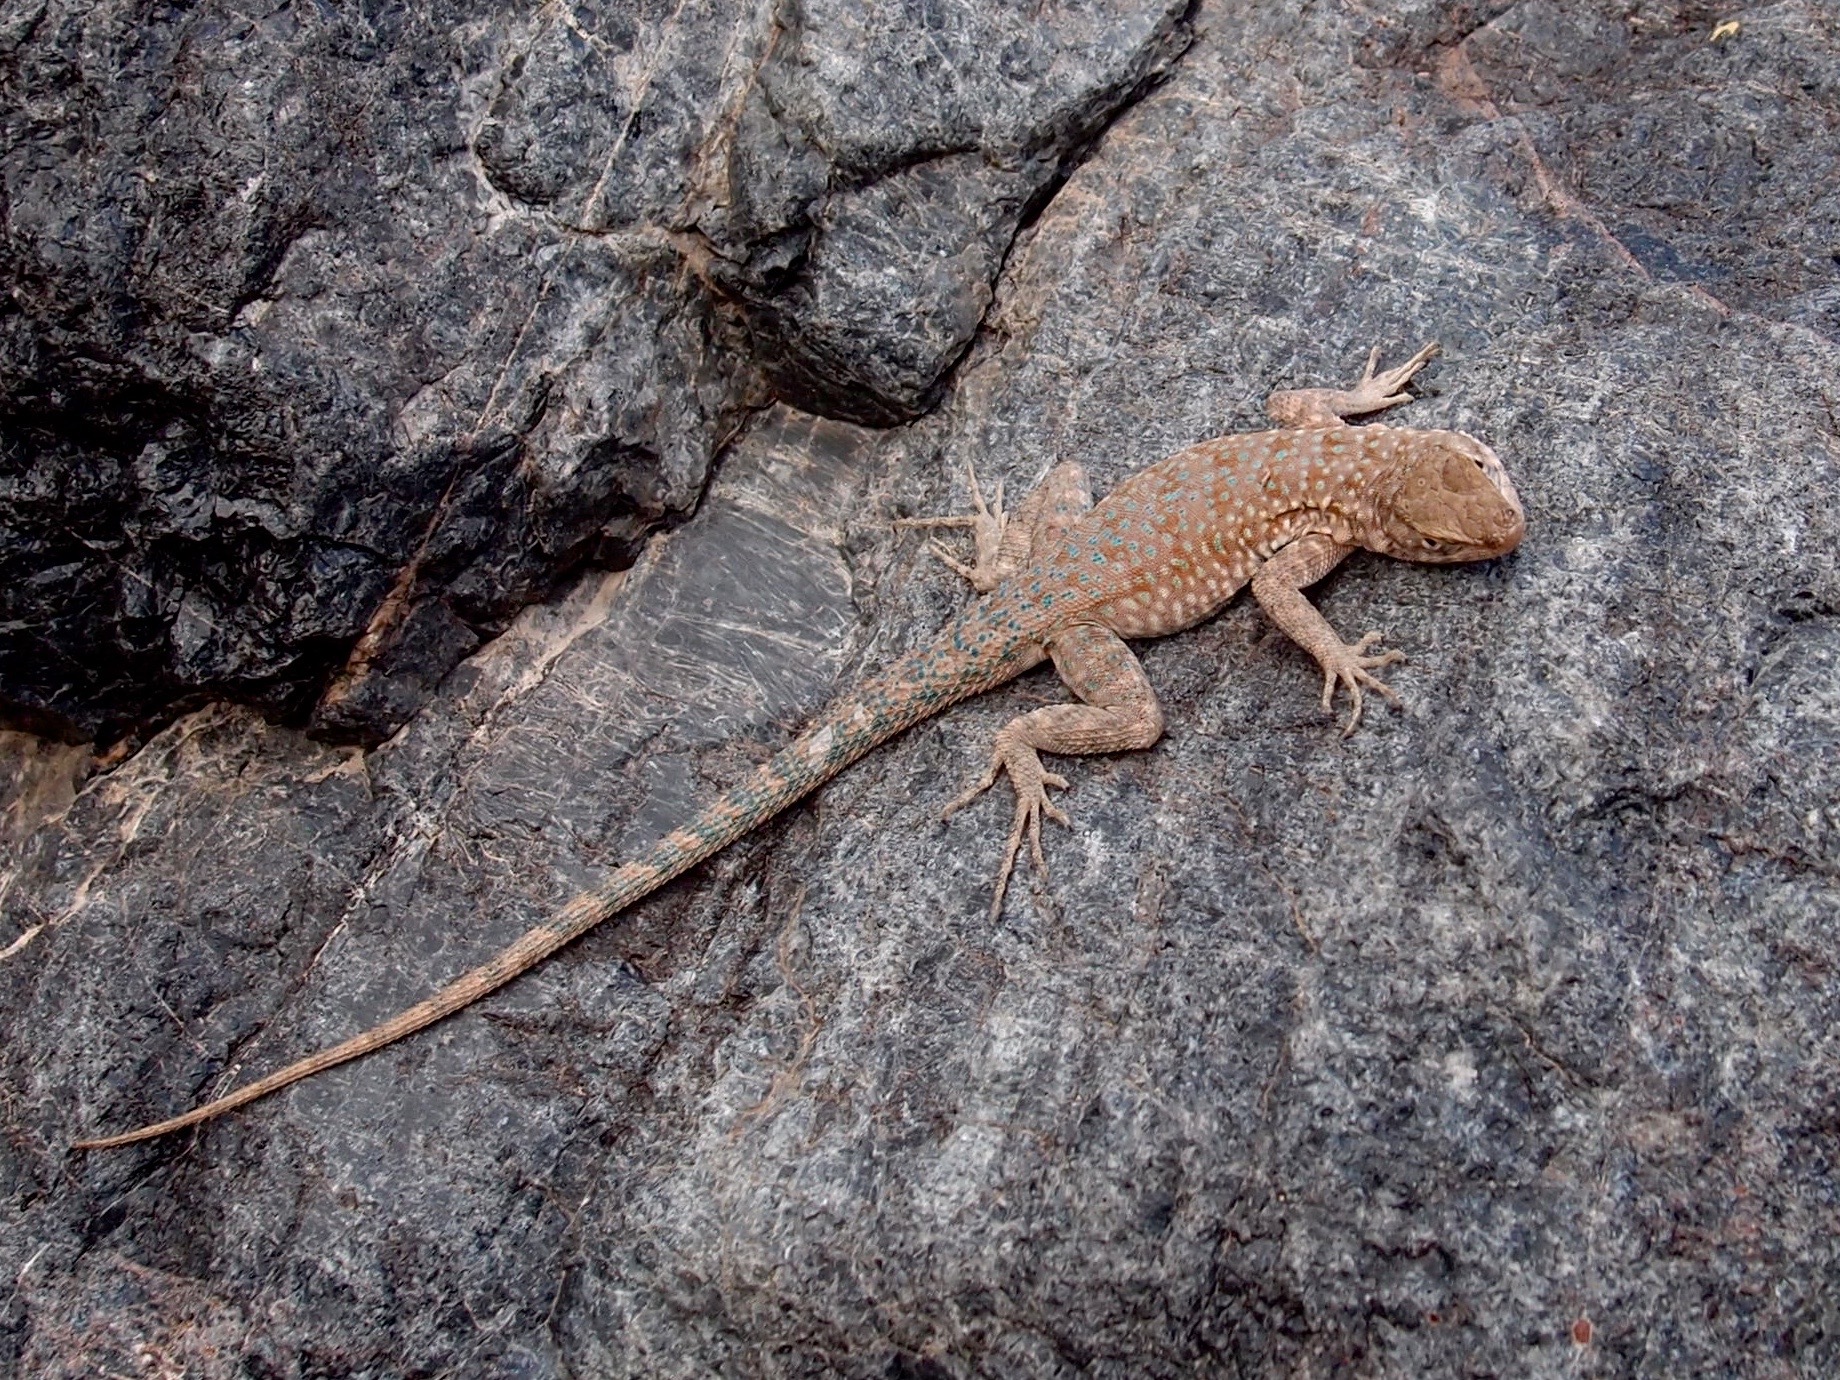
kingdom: Animalia
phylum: Chordata
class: Squamata
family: Phrynosomatidae
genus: Uta
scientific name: Uta stansburiana
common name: Side-blotched lizard
